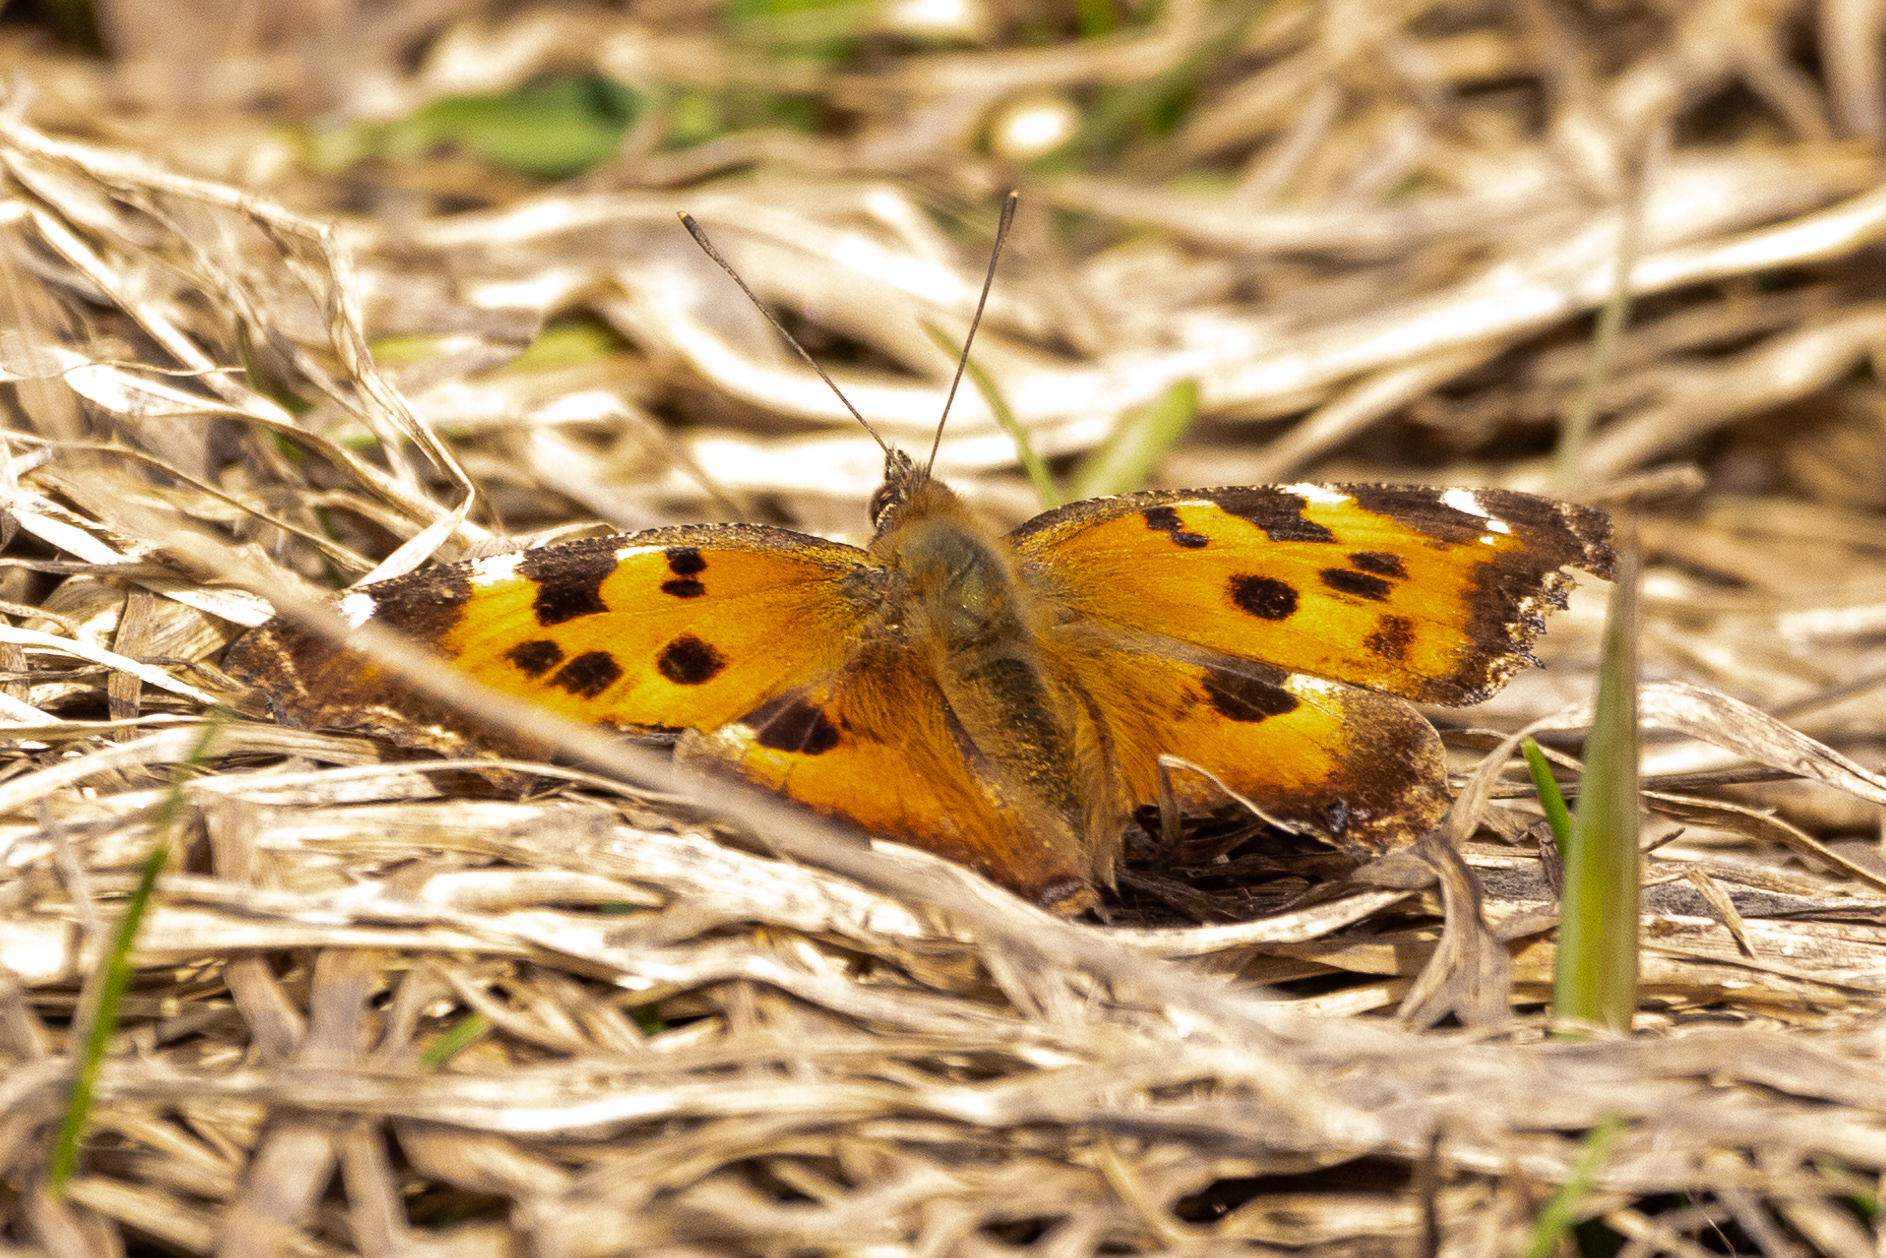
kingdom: Animalia
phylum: Arthropoda
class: Insecta
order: Lepidoptera
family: Nymphalidae
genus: Nymphalis
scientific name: Nymphalis xanthomelas
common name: Scarce tortoiseshell
